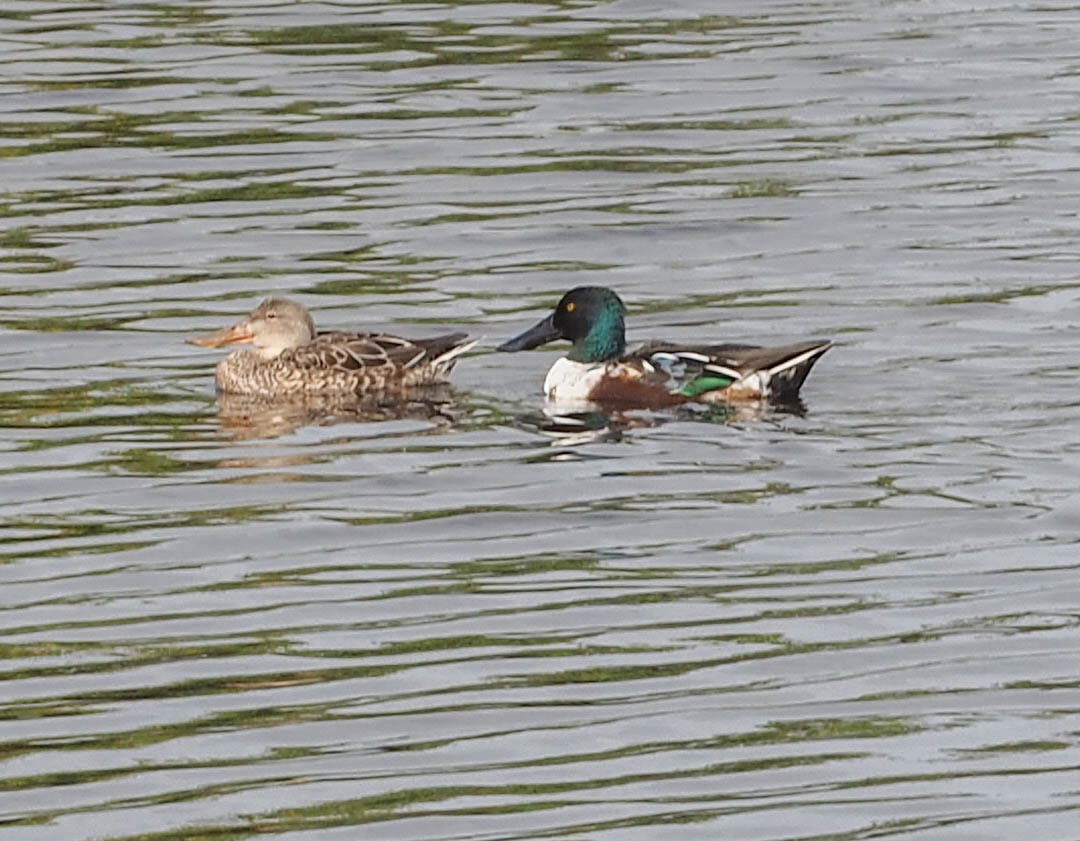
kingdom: Animalia
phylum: Chordata
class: Aves
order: Anseriformes
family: Anatidae
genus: Spatula
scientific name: Spatula clypeata
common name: Northern shoveler
